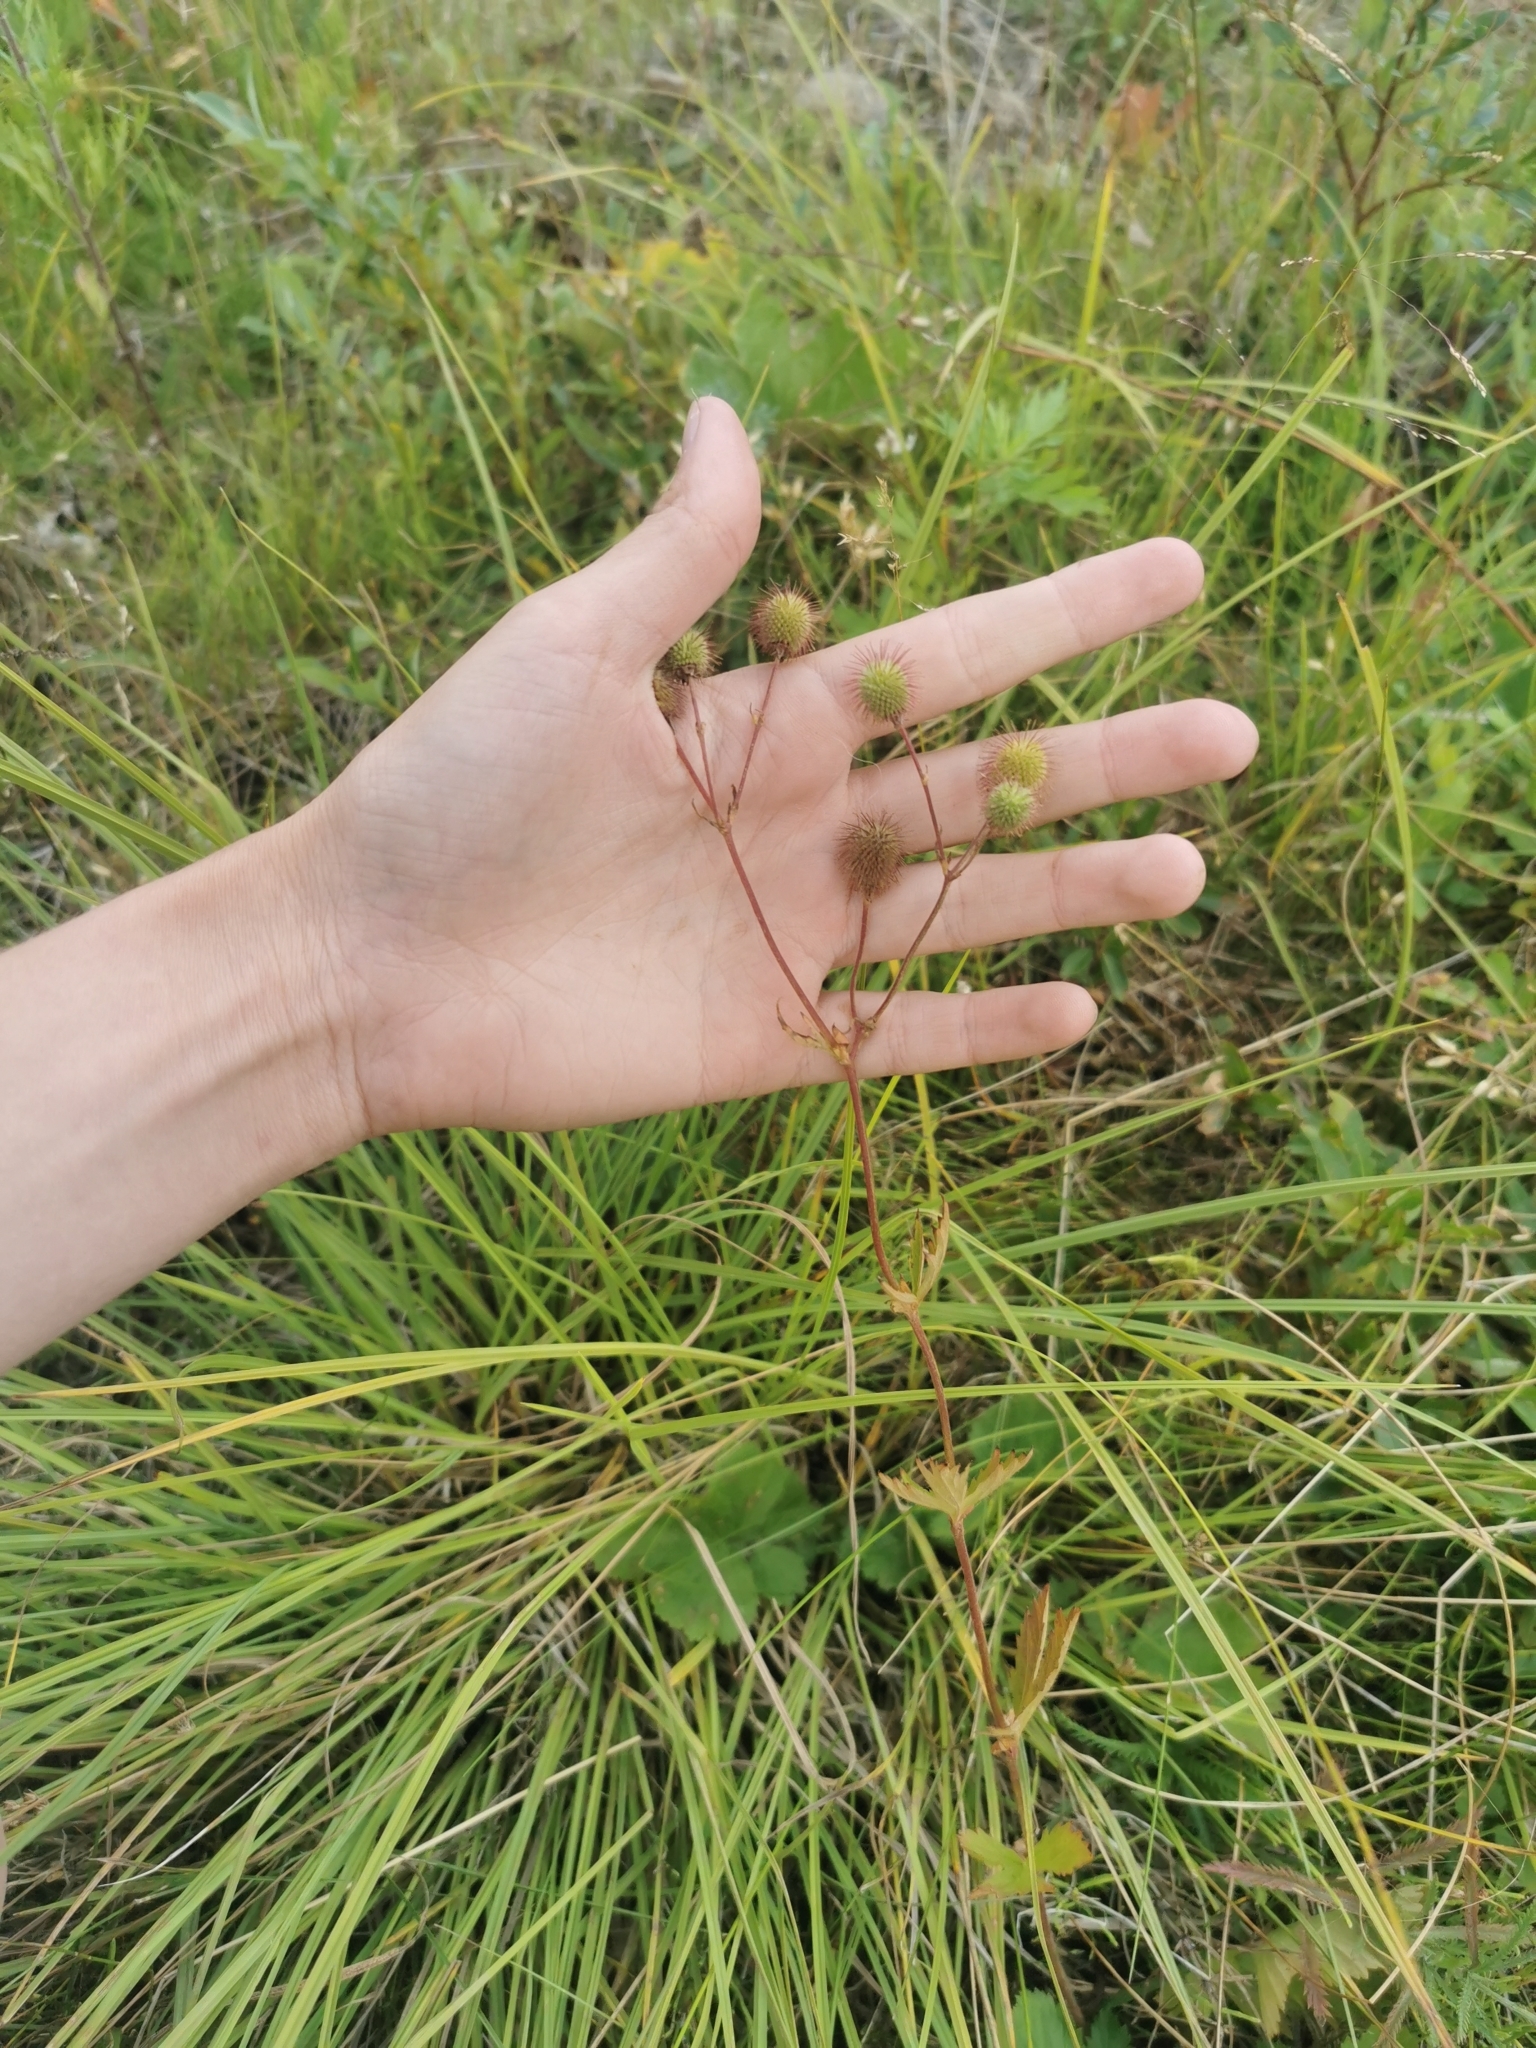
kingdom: Plantae
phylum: Tracheophyta
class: Magnoliopsida
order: Rosales
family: Rosaceae
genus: Geum
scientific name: Geum aleppicum
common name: Yellow avens
